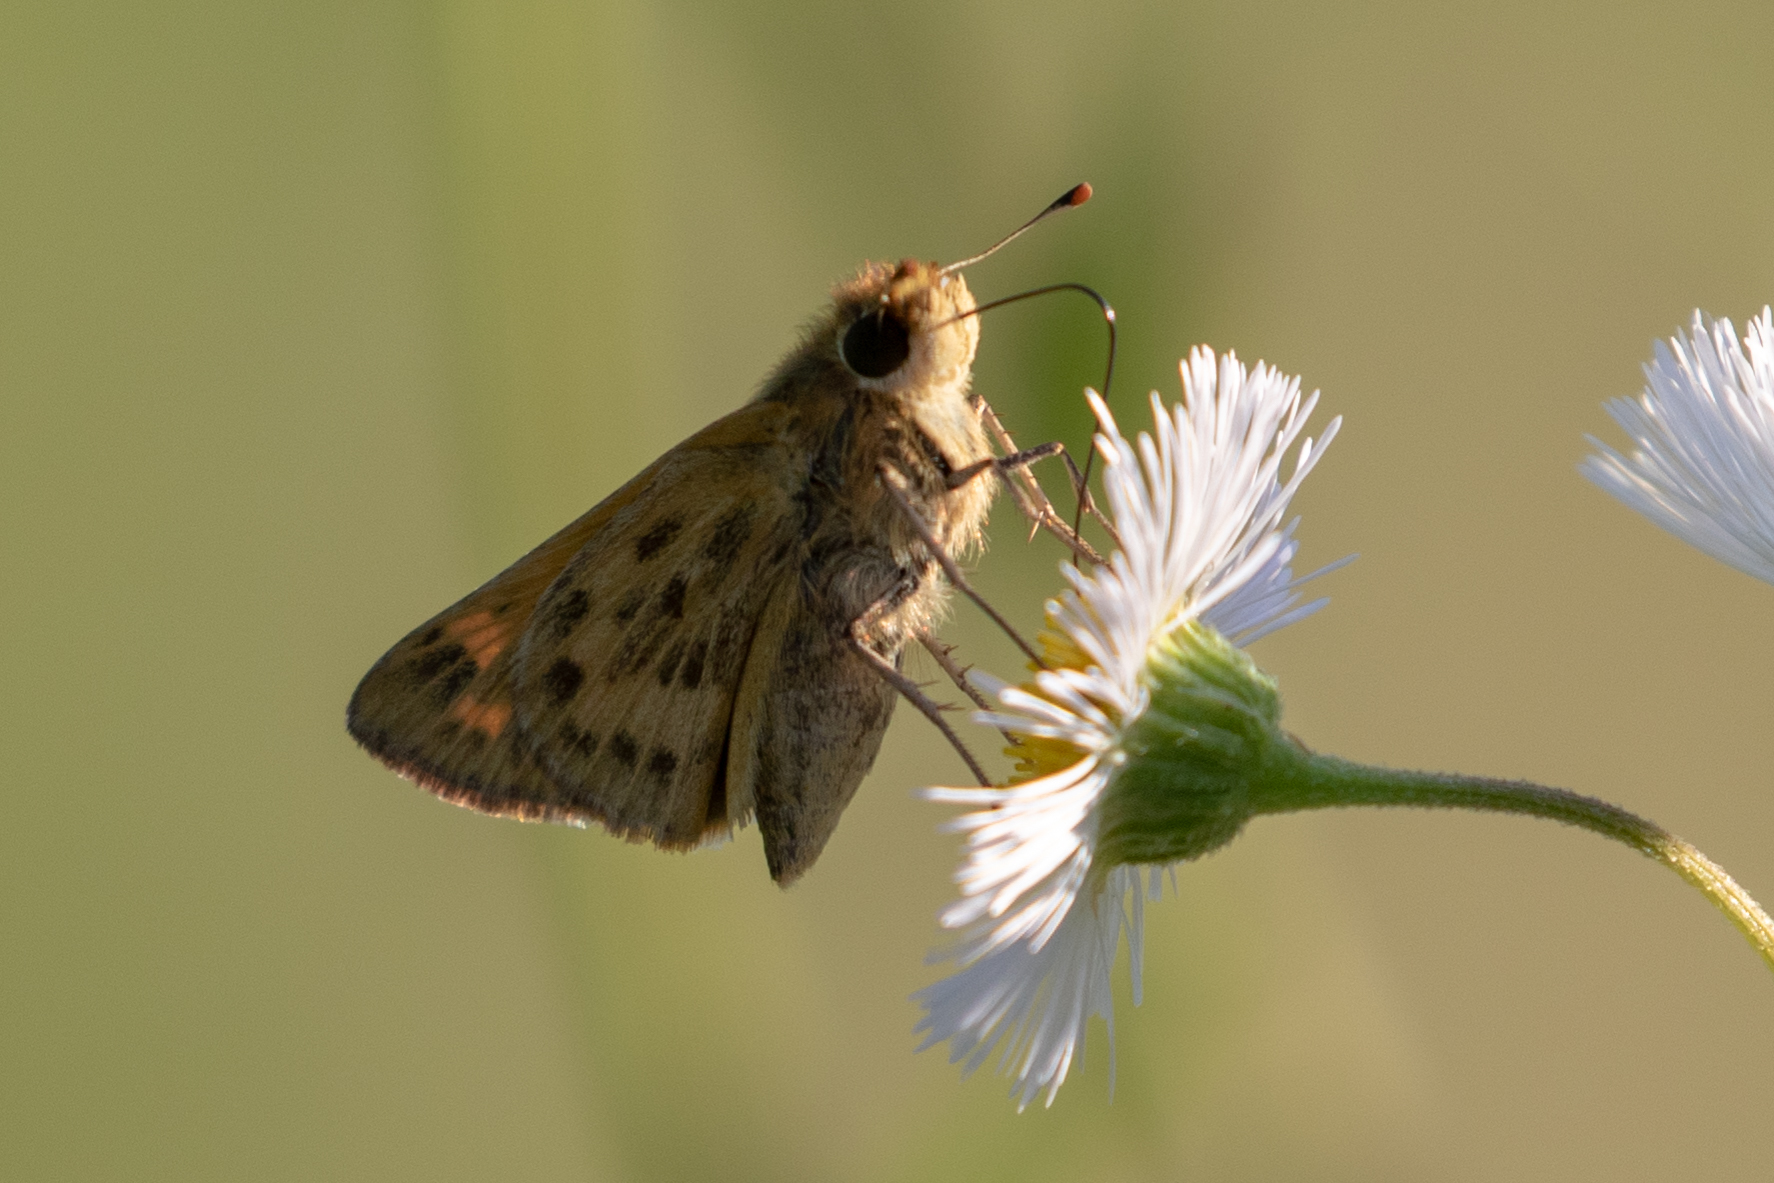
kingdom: Animalia
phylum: Arthropoda
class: Insecta
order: Lepidoptera
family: Hesperiidae
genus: Hylephila
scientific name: Hylephila phyleus
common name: Fiery skipper
